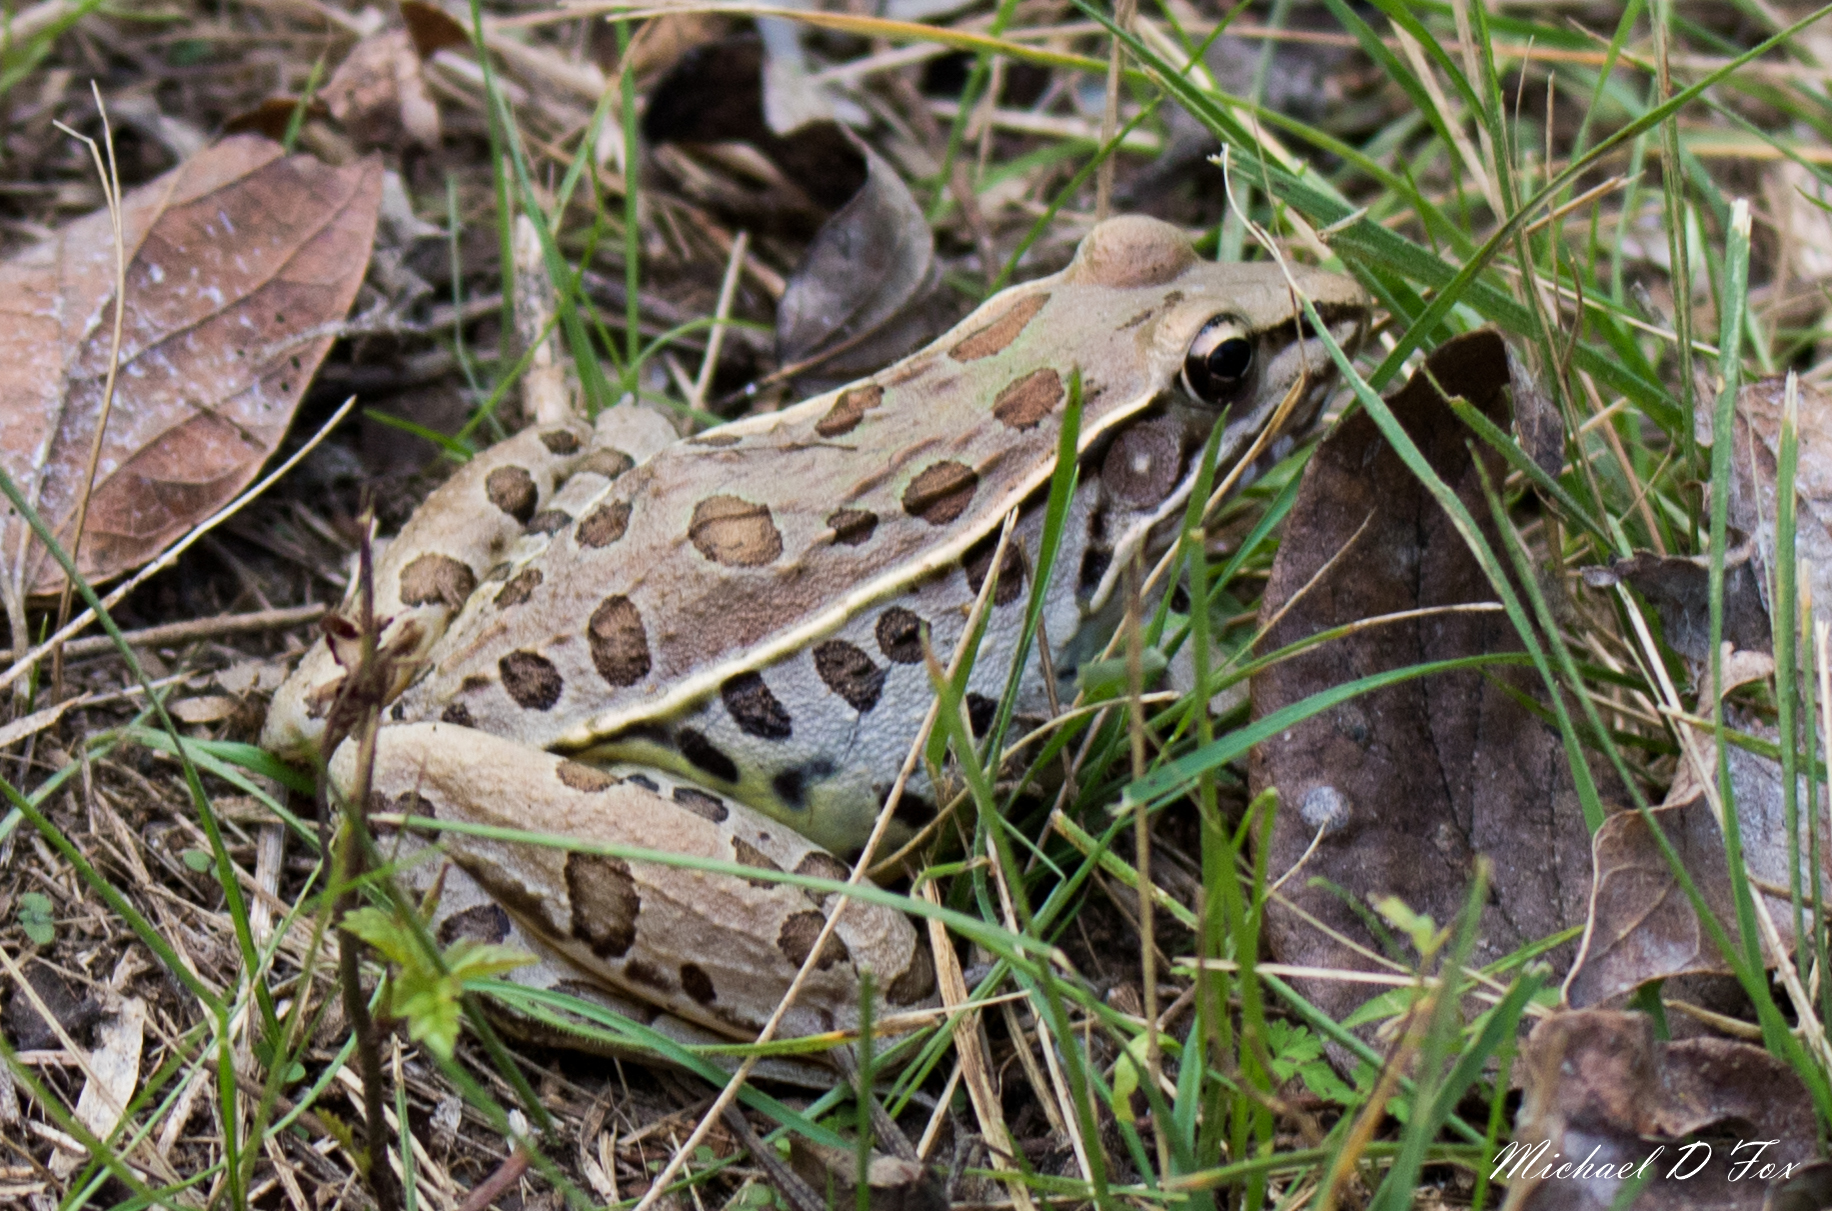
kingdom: Animalia
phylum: Chordata
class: Amphibia
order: Anura
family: Ranidae
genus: Lithobates
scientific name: Lithobates sphenocephalus
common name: Southern leopard frog
